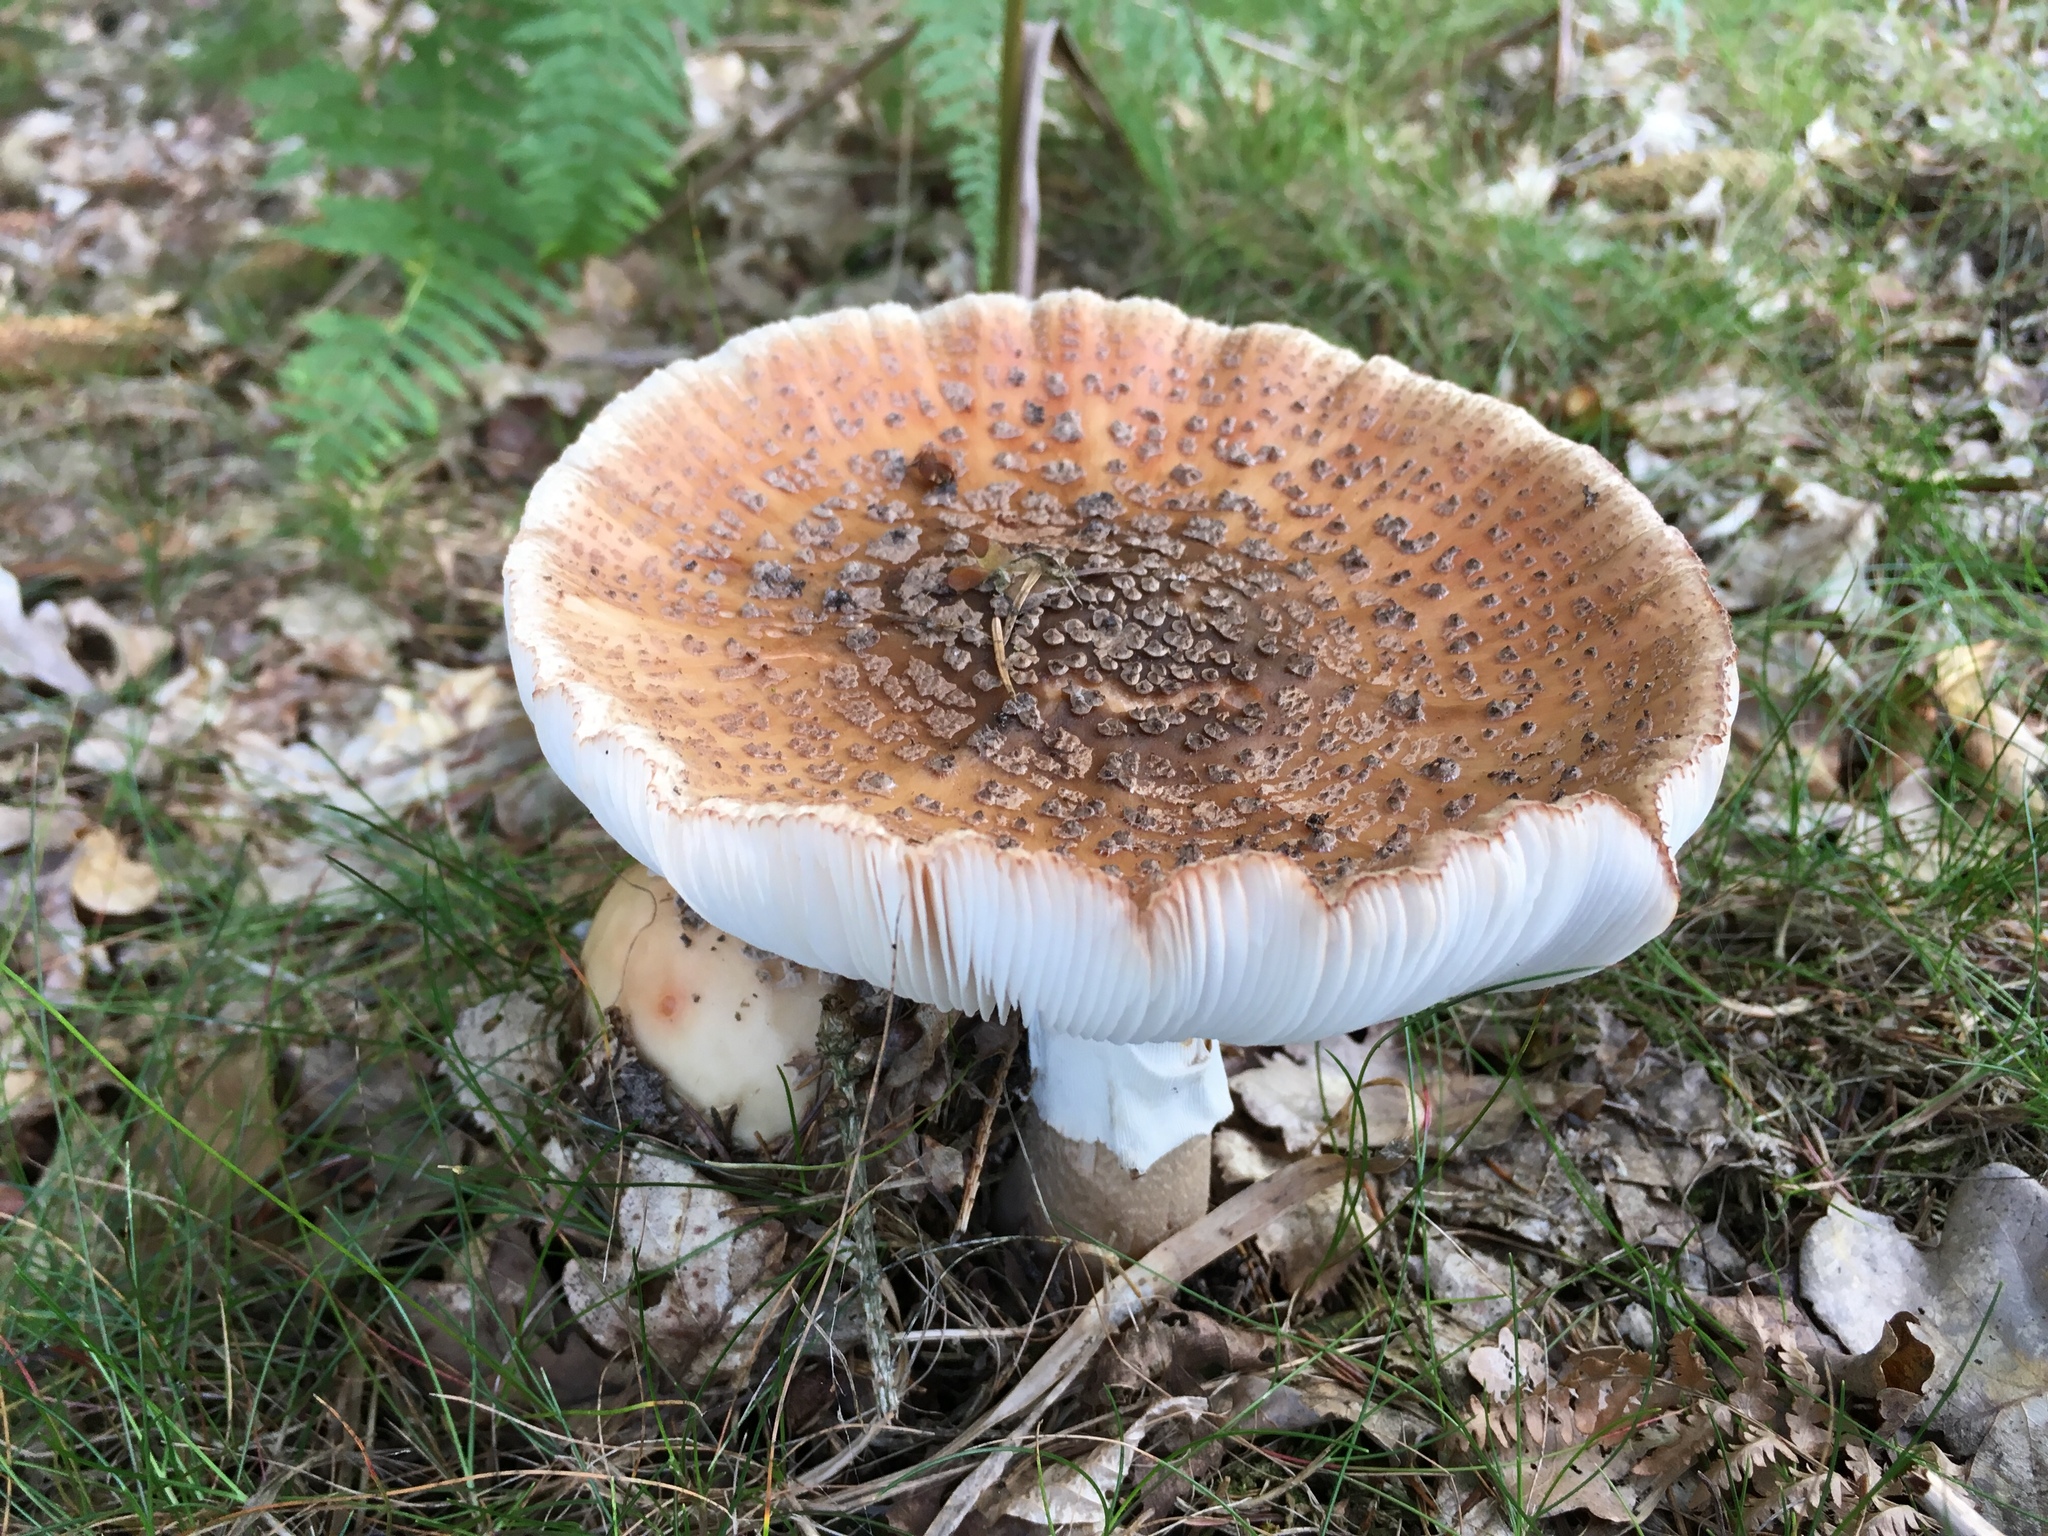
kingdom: Fungi
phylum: Basidiomycota
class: Agaricomycetes
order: Agaricales
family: Amanitaceae
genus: Amanita
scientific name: Amanita rubescens
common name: Blusher
